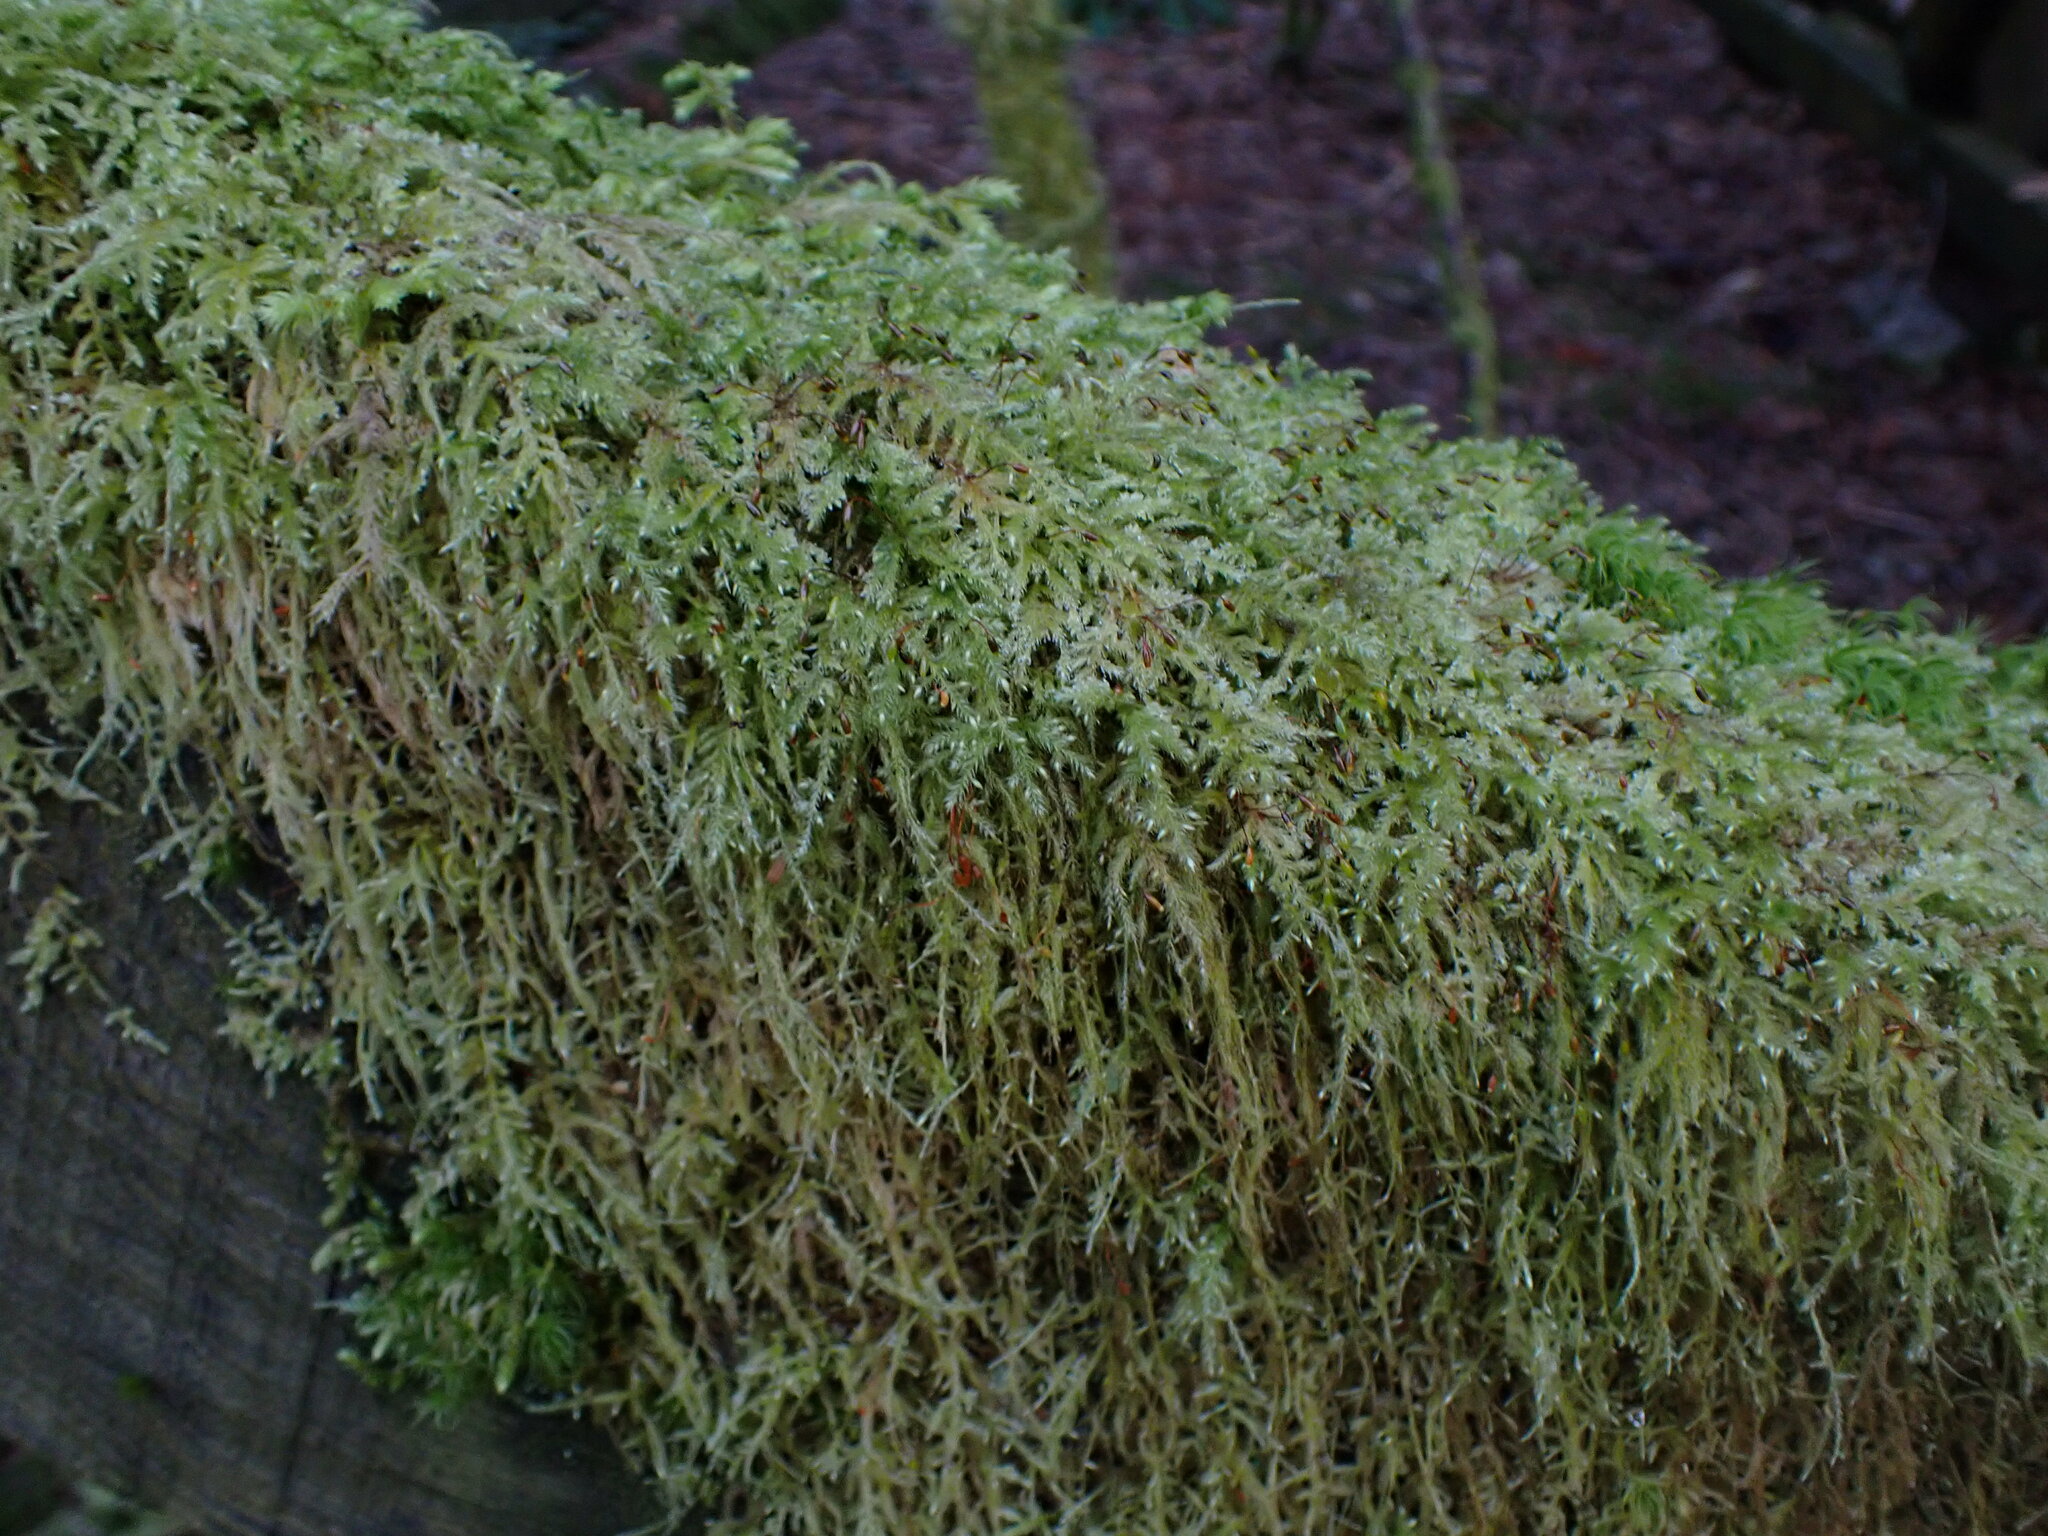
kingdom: Plantae
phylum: Bryophyta
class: Bryopsida
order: Hypnales
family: Lembophyllaceae
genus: Pseudisothecium
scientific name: Pseudisothecium stoloniferum
